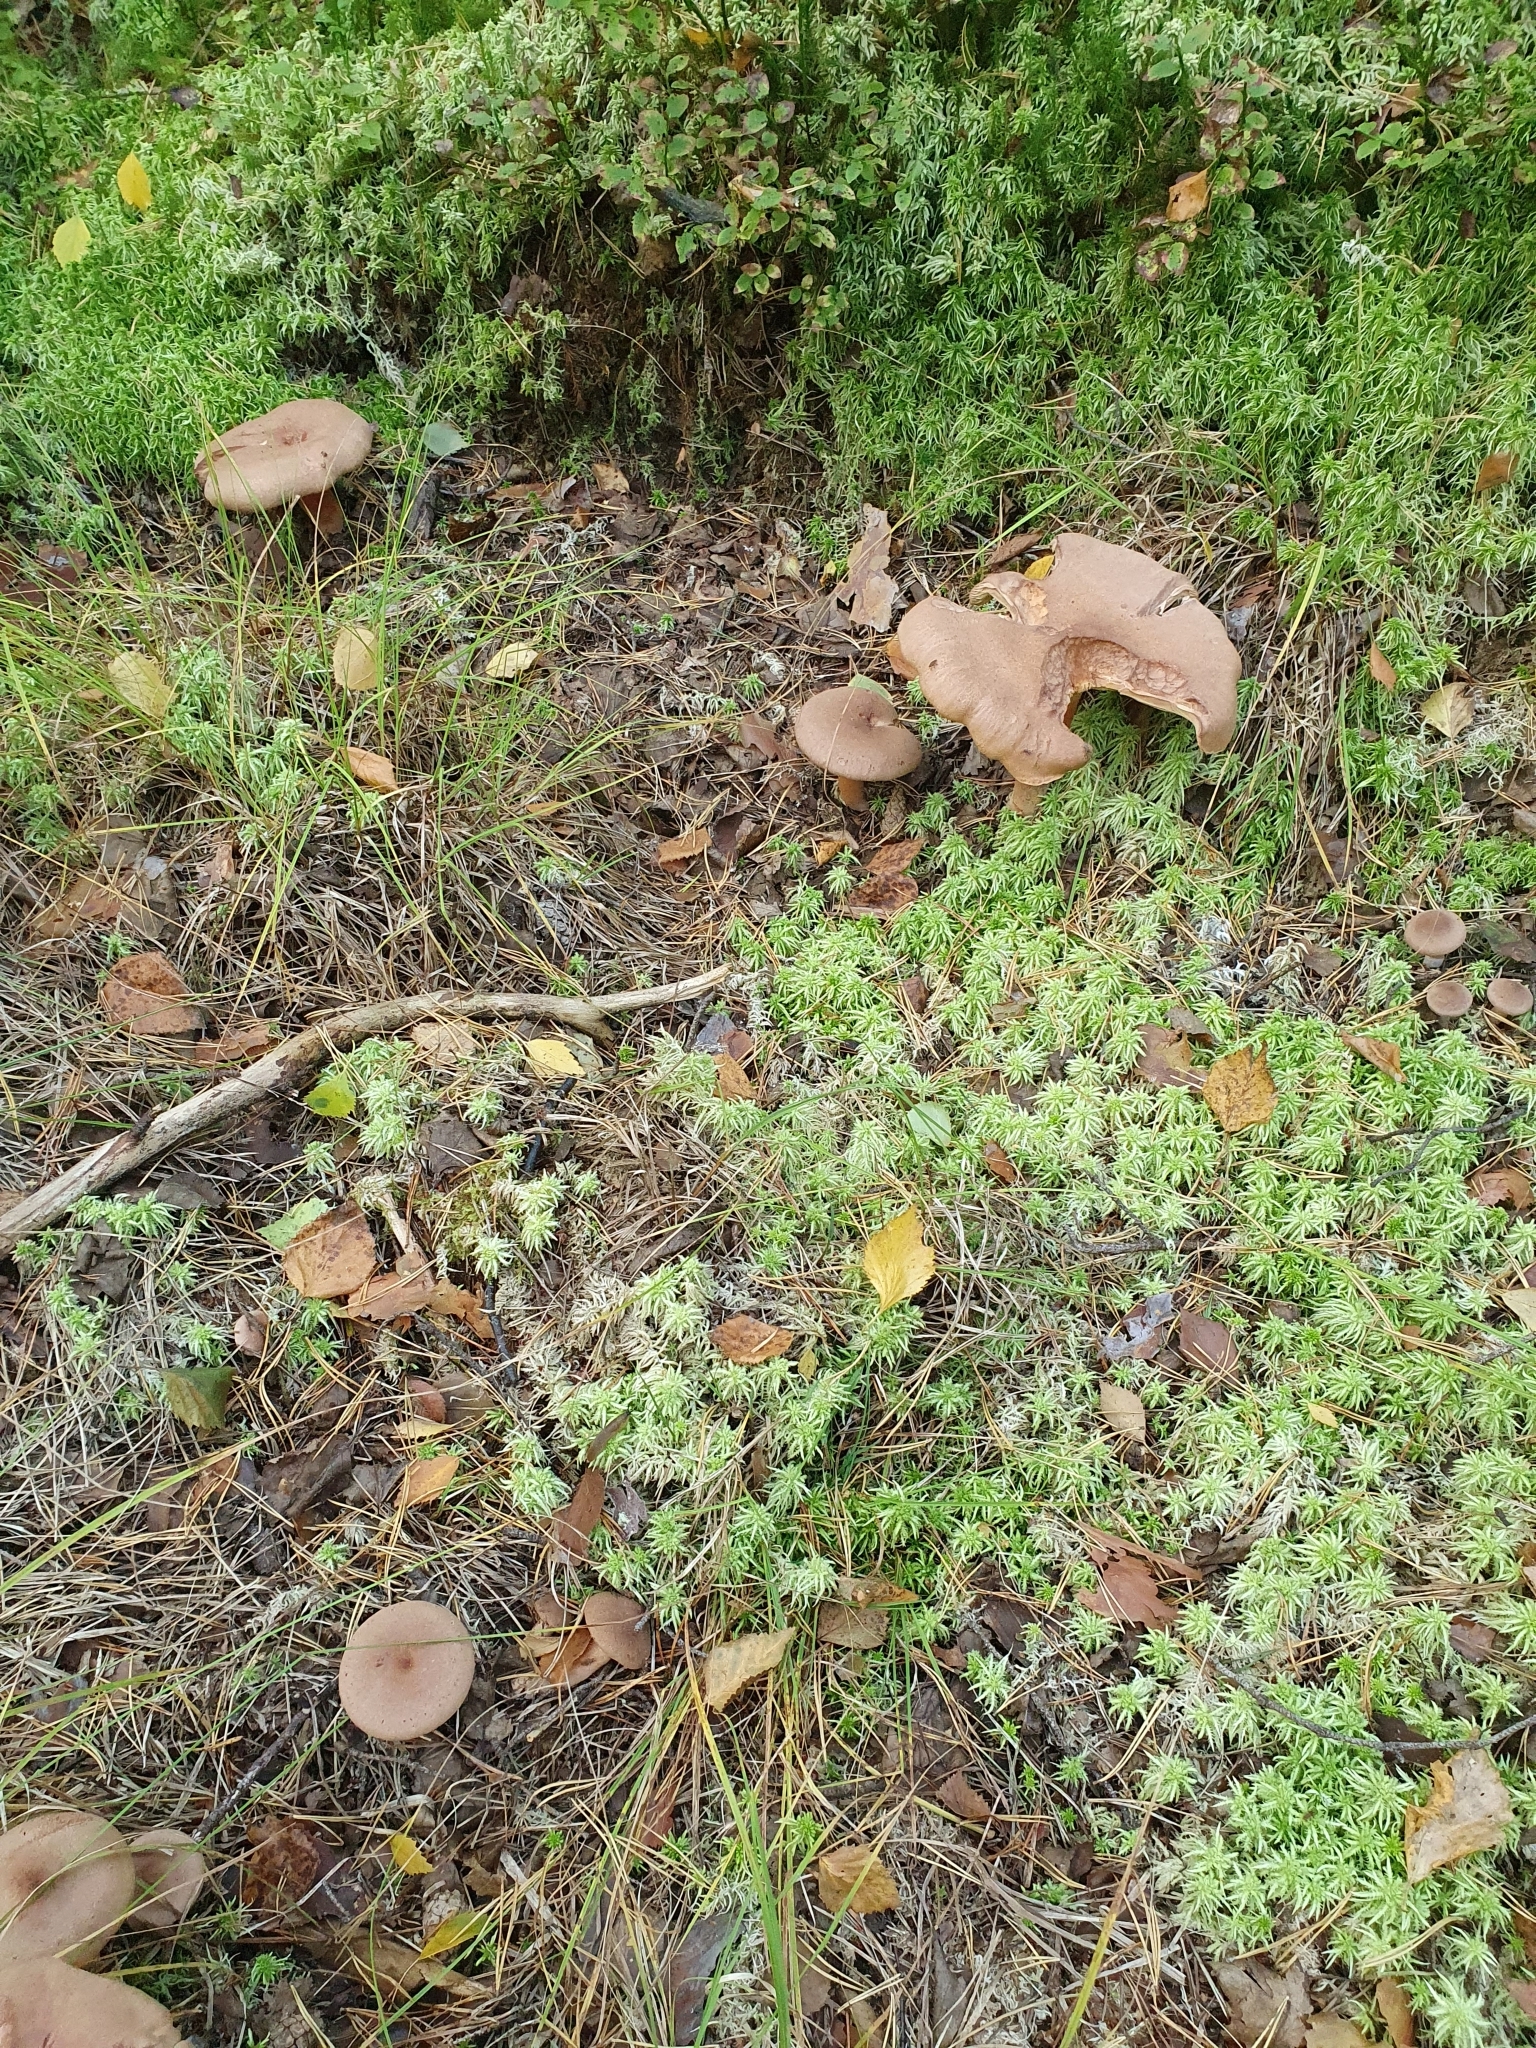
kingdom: Fungi
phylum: Basidiomycota
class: Agaricomycetes
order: Russulales
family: Russulaceae
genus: Lactarius
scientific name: Lactarius helvus
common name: Fenugreek milkcap
